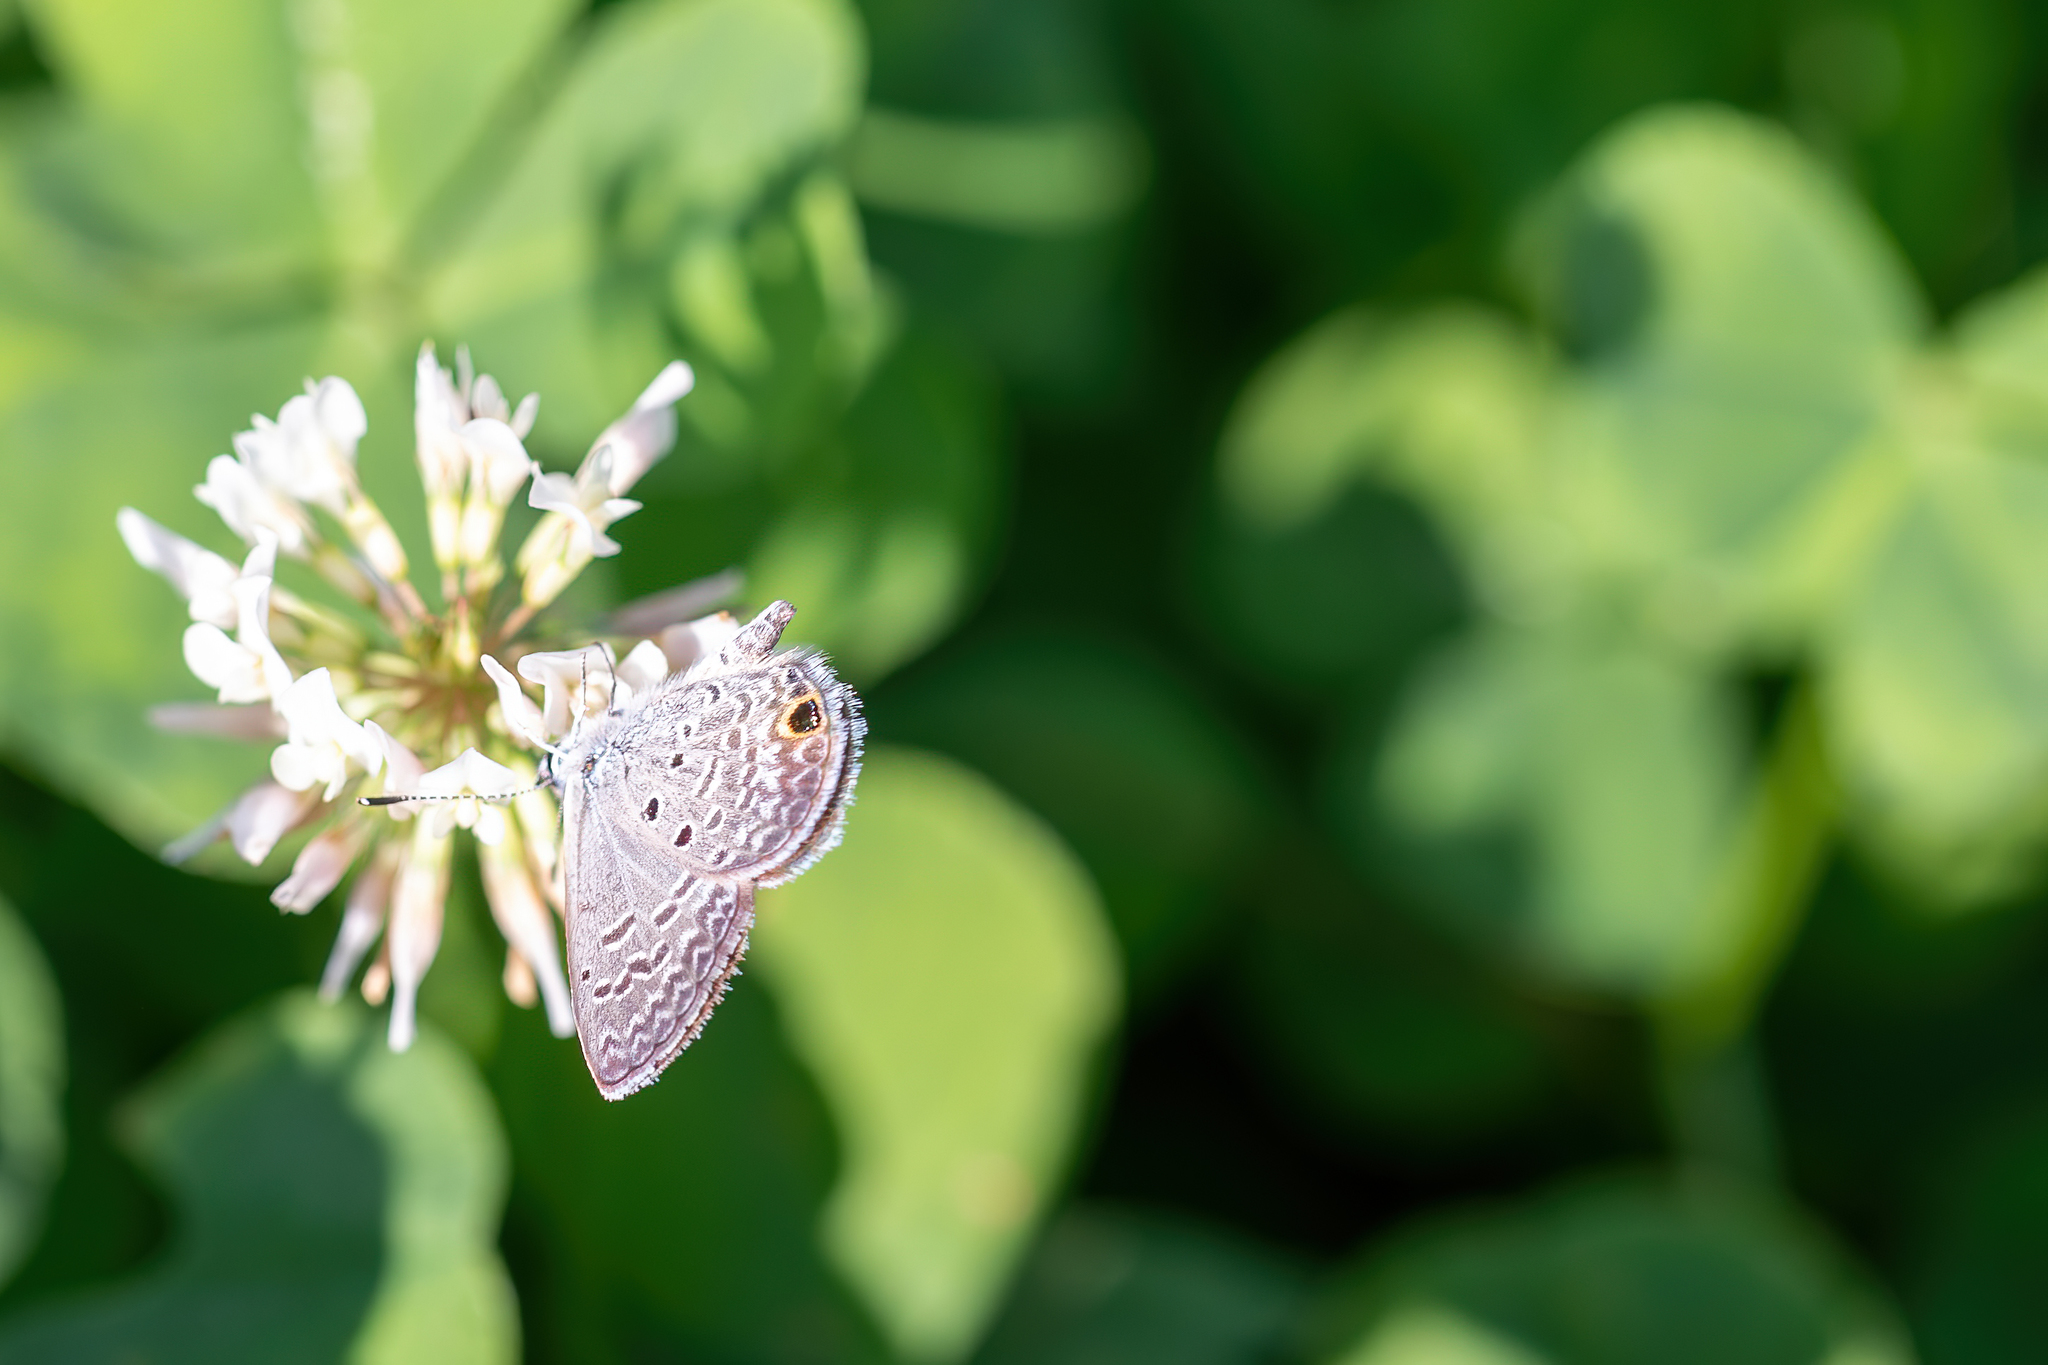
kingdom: Animalia
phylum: Arthropoda
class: Insecta
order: Lepidoptera
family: Lycaenidae
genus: Hemiargus
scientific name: Hemiargus ceraunus
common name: Ceraunus blue
